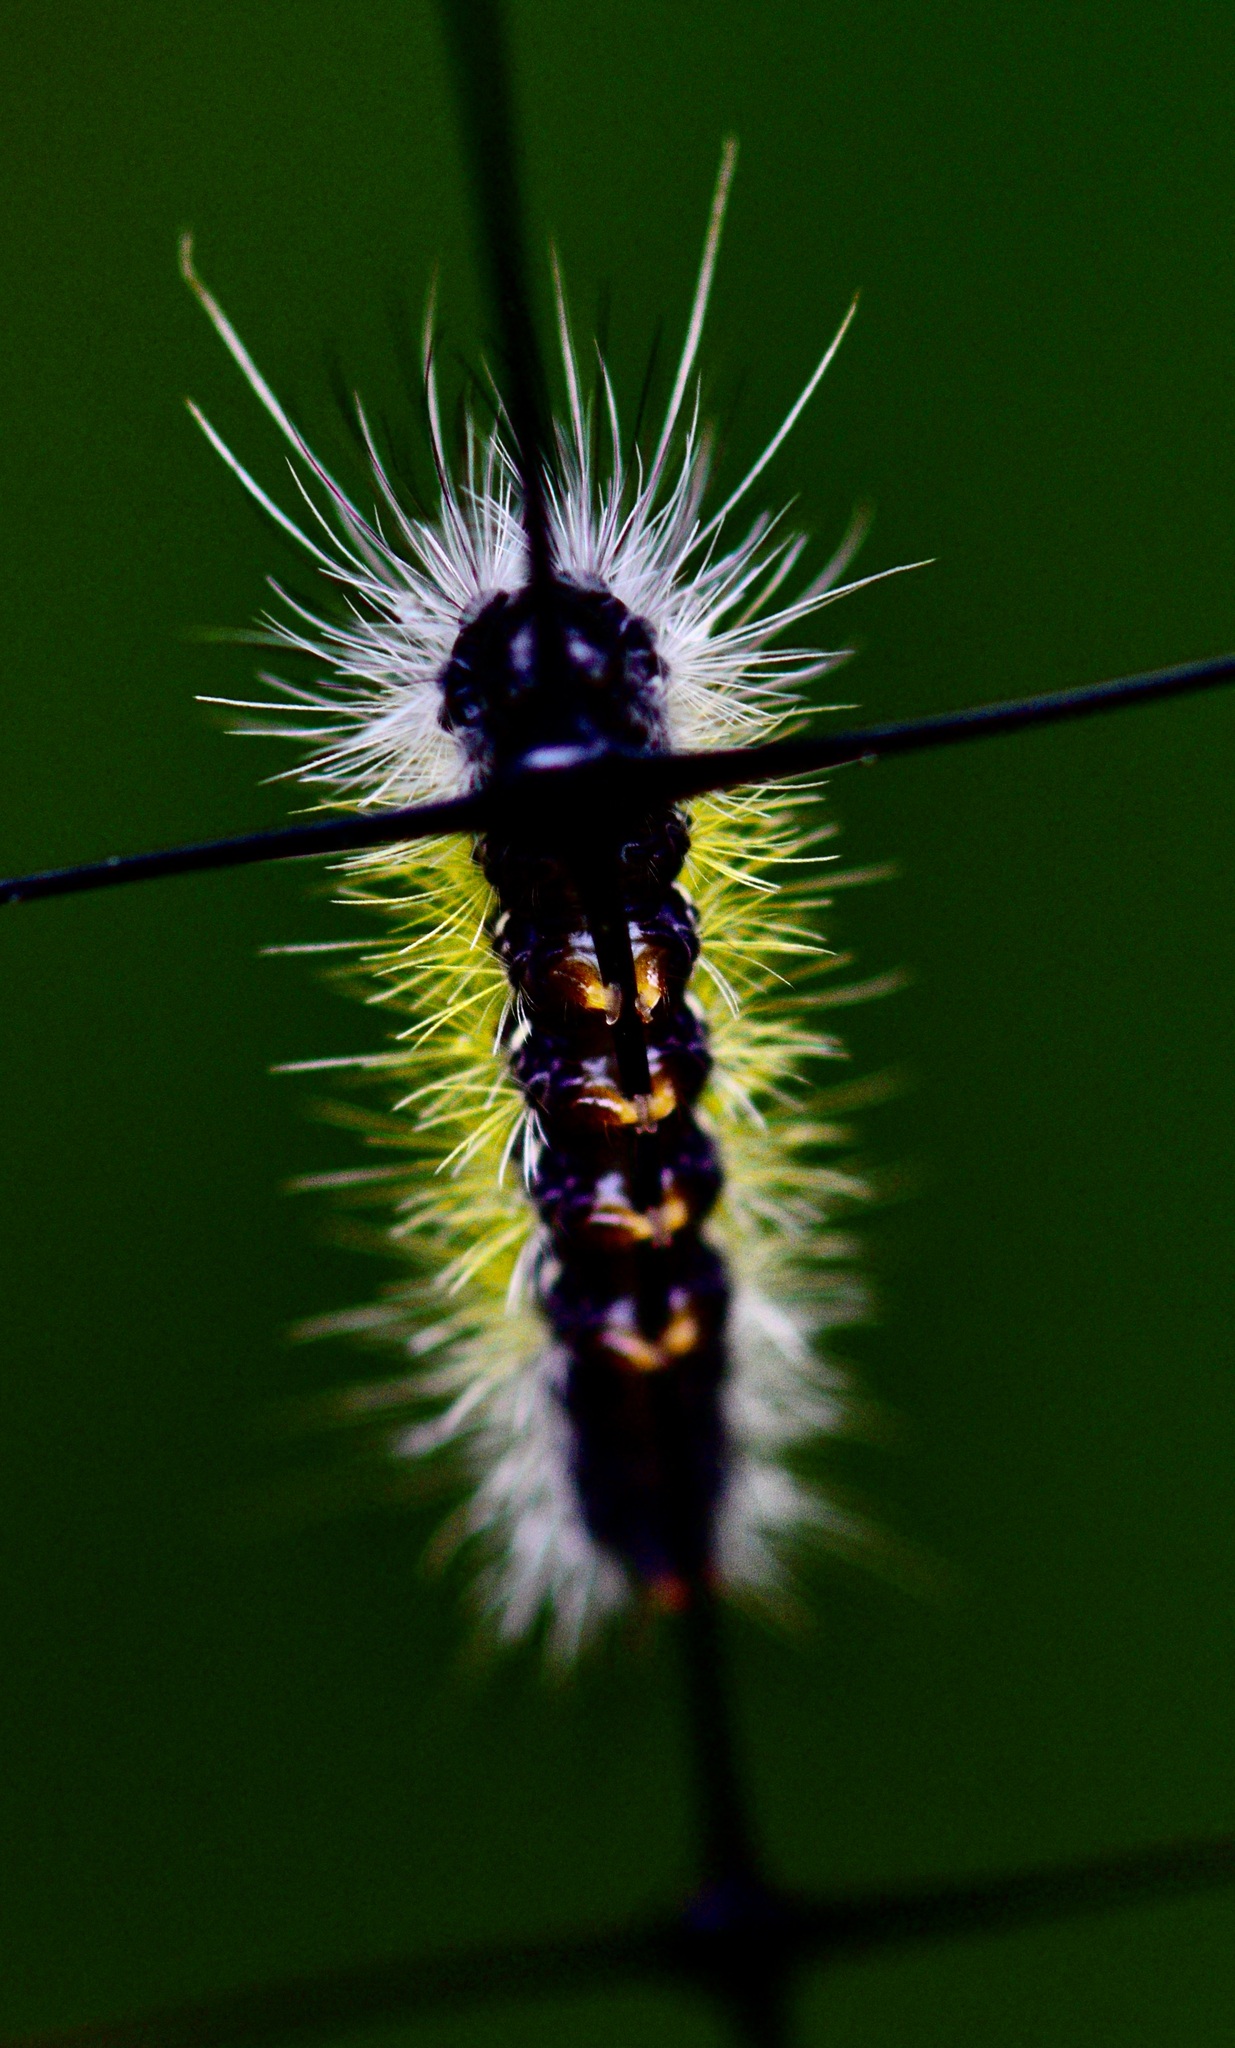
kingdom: Animalia
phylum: Arthropoda
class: Insecta
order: Lepidoptera
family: Erebidae
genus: Ctenucha
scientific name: Ctenucha virginica
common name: Virginia ctenucha moth
